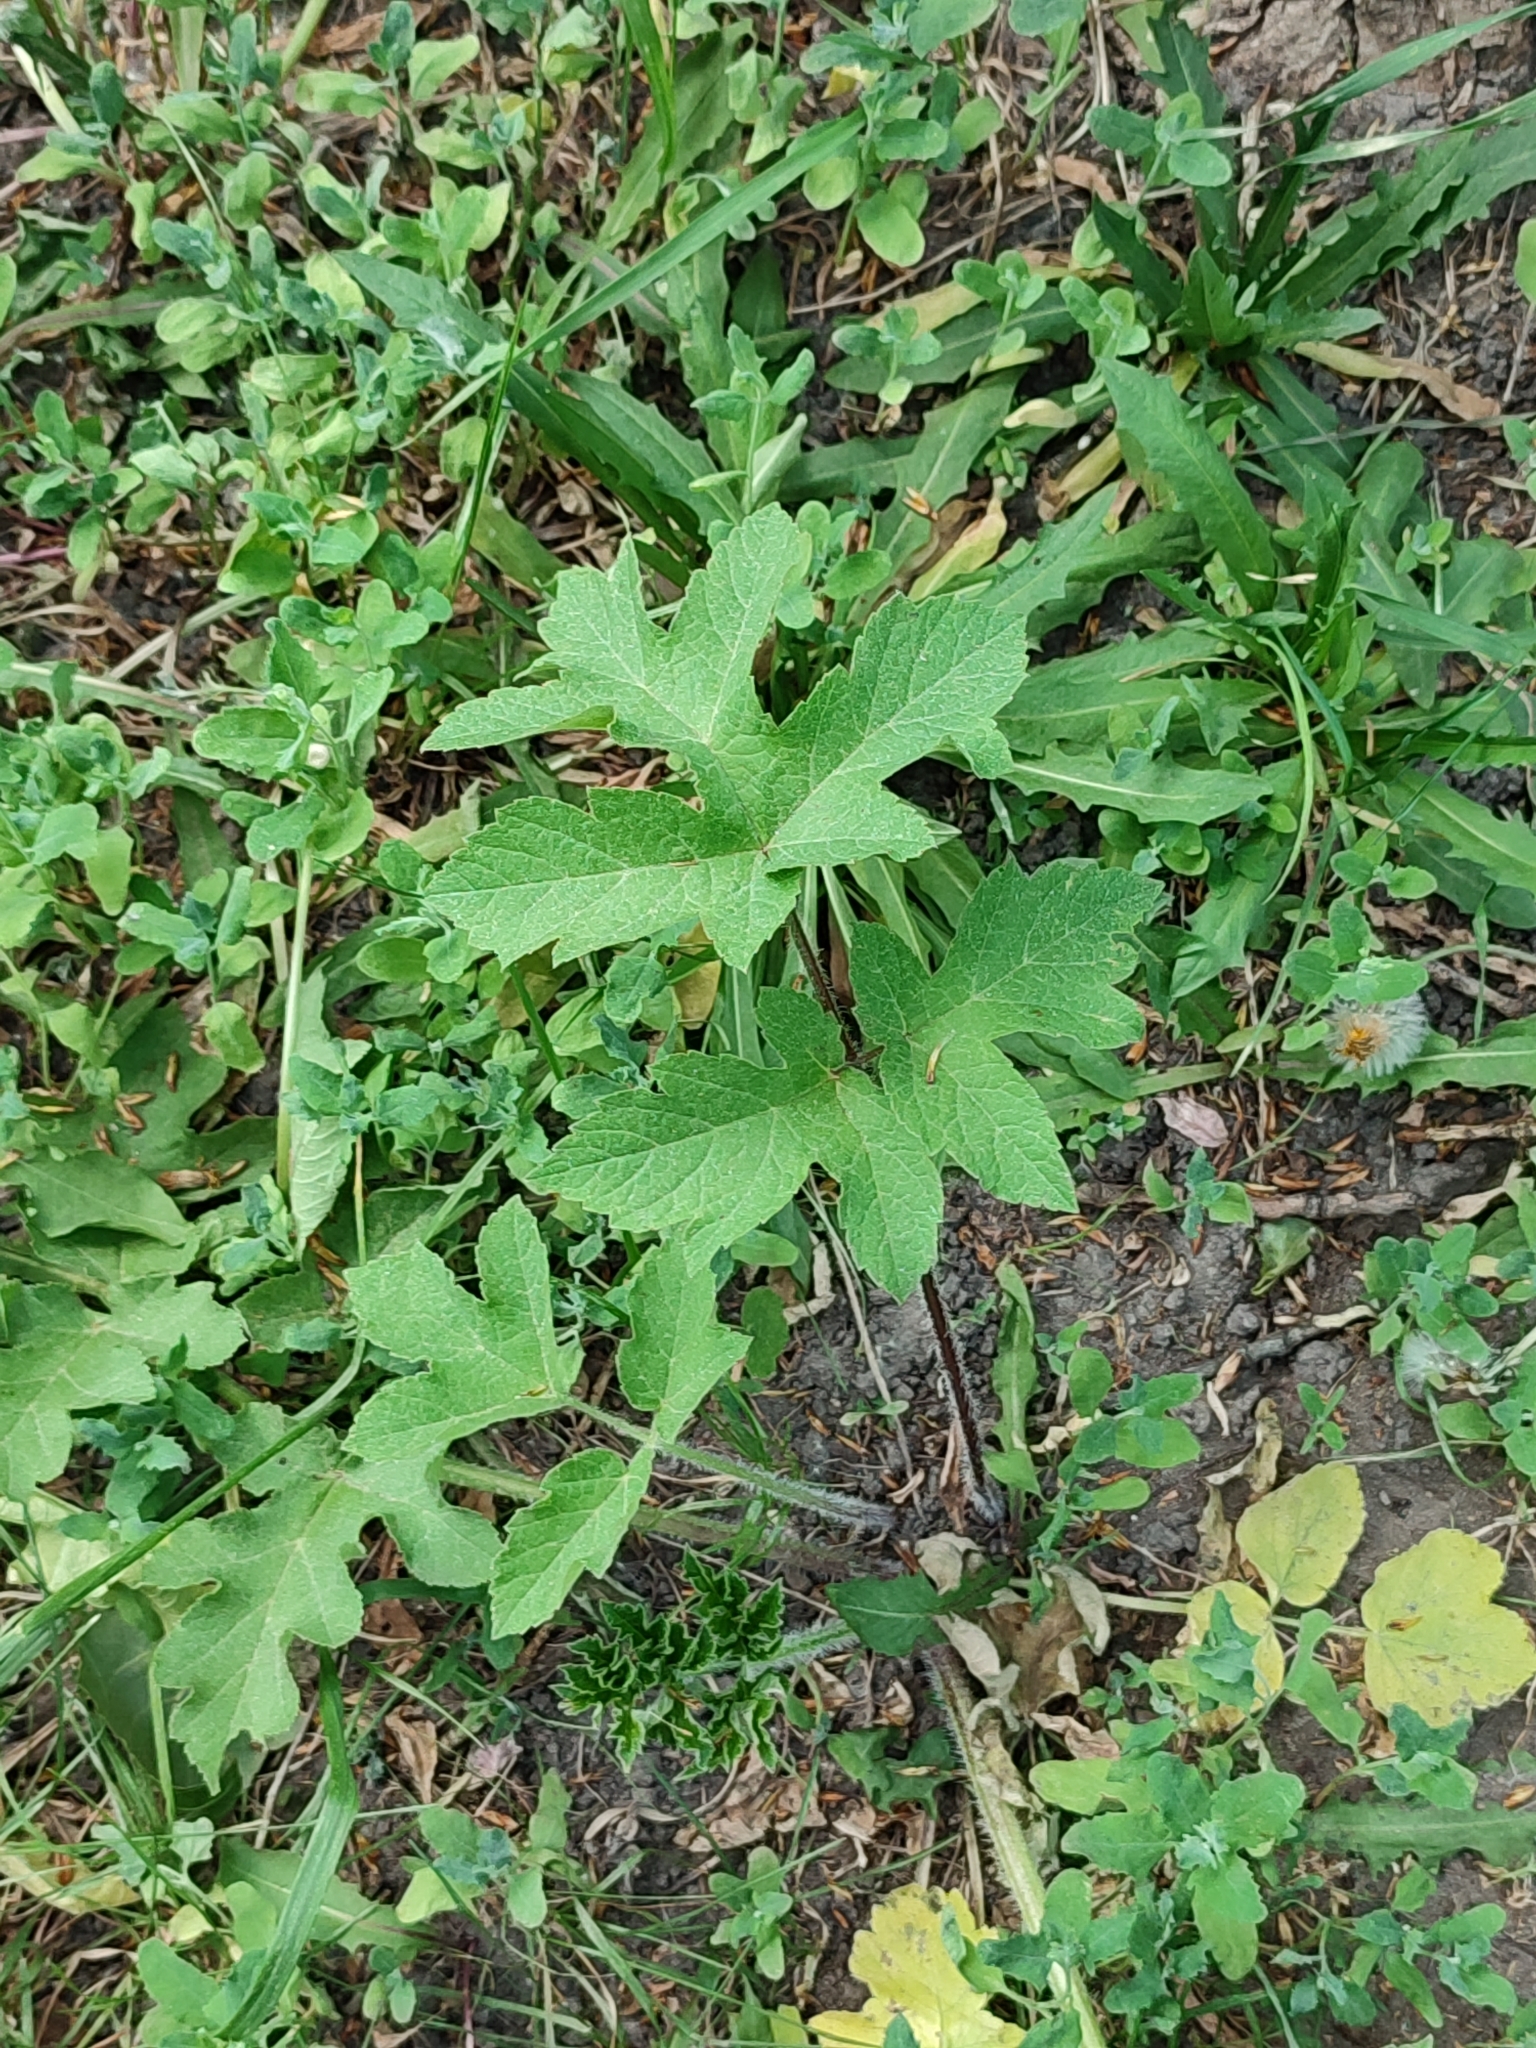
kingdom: Plantae
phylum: Tracheophyta
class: Magnoliopsida
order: Apiales
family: Apiaceae
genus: Heracleum
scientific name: Heracleum sphondylium
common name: Hogweed
